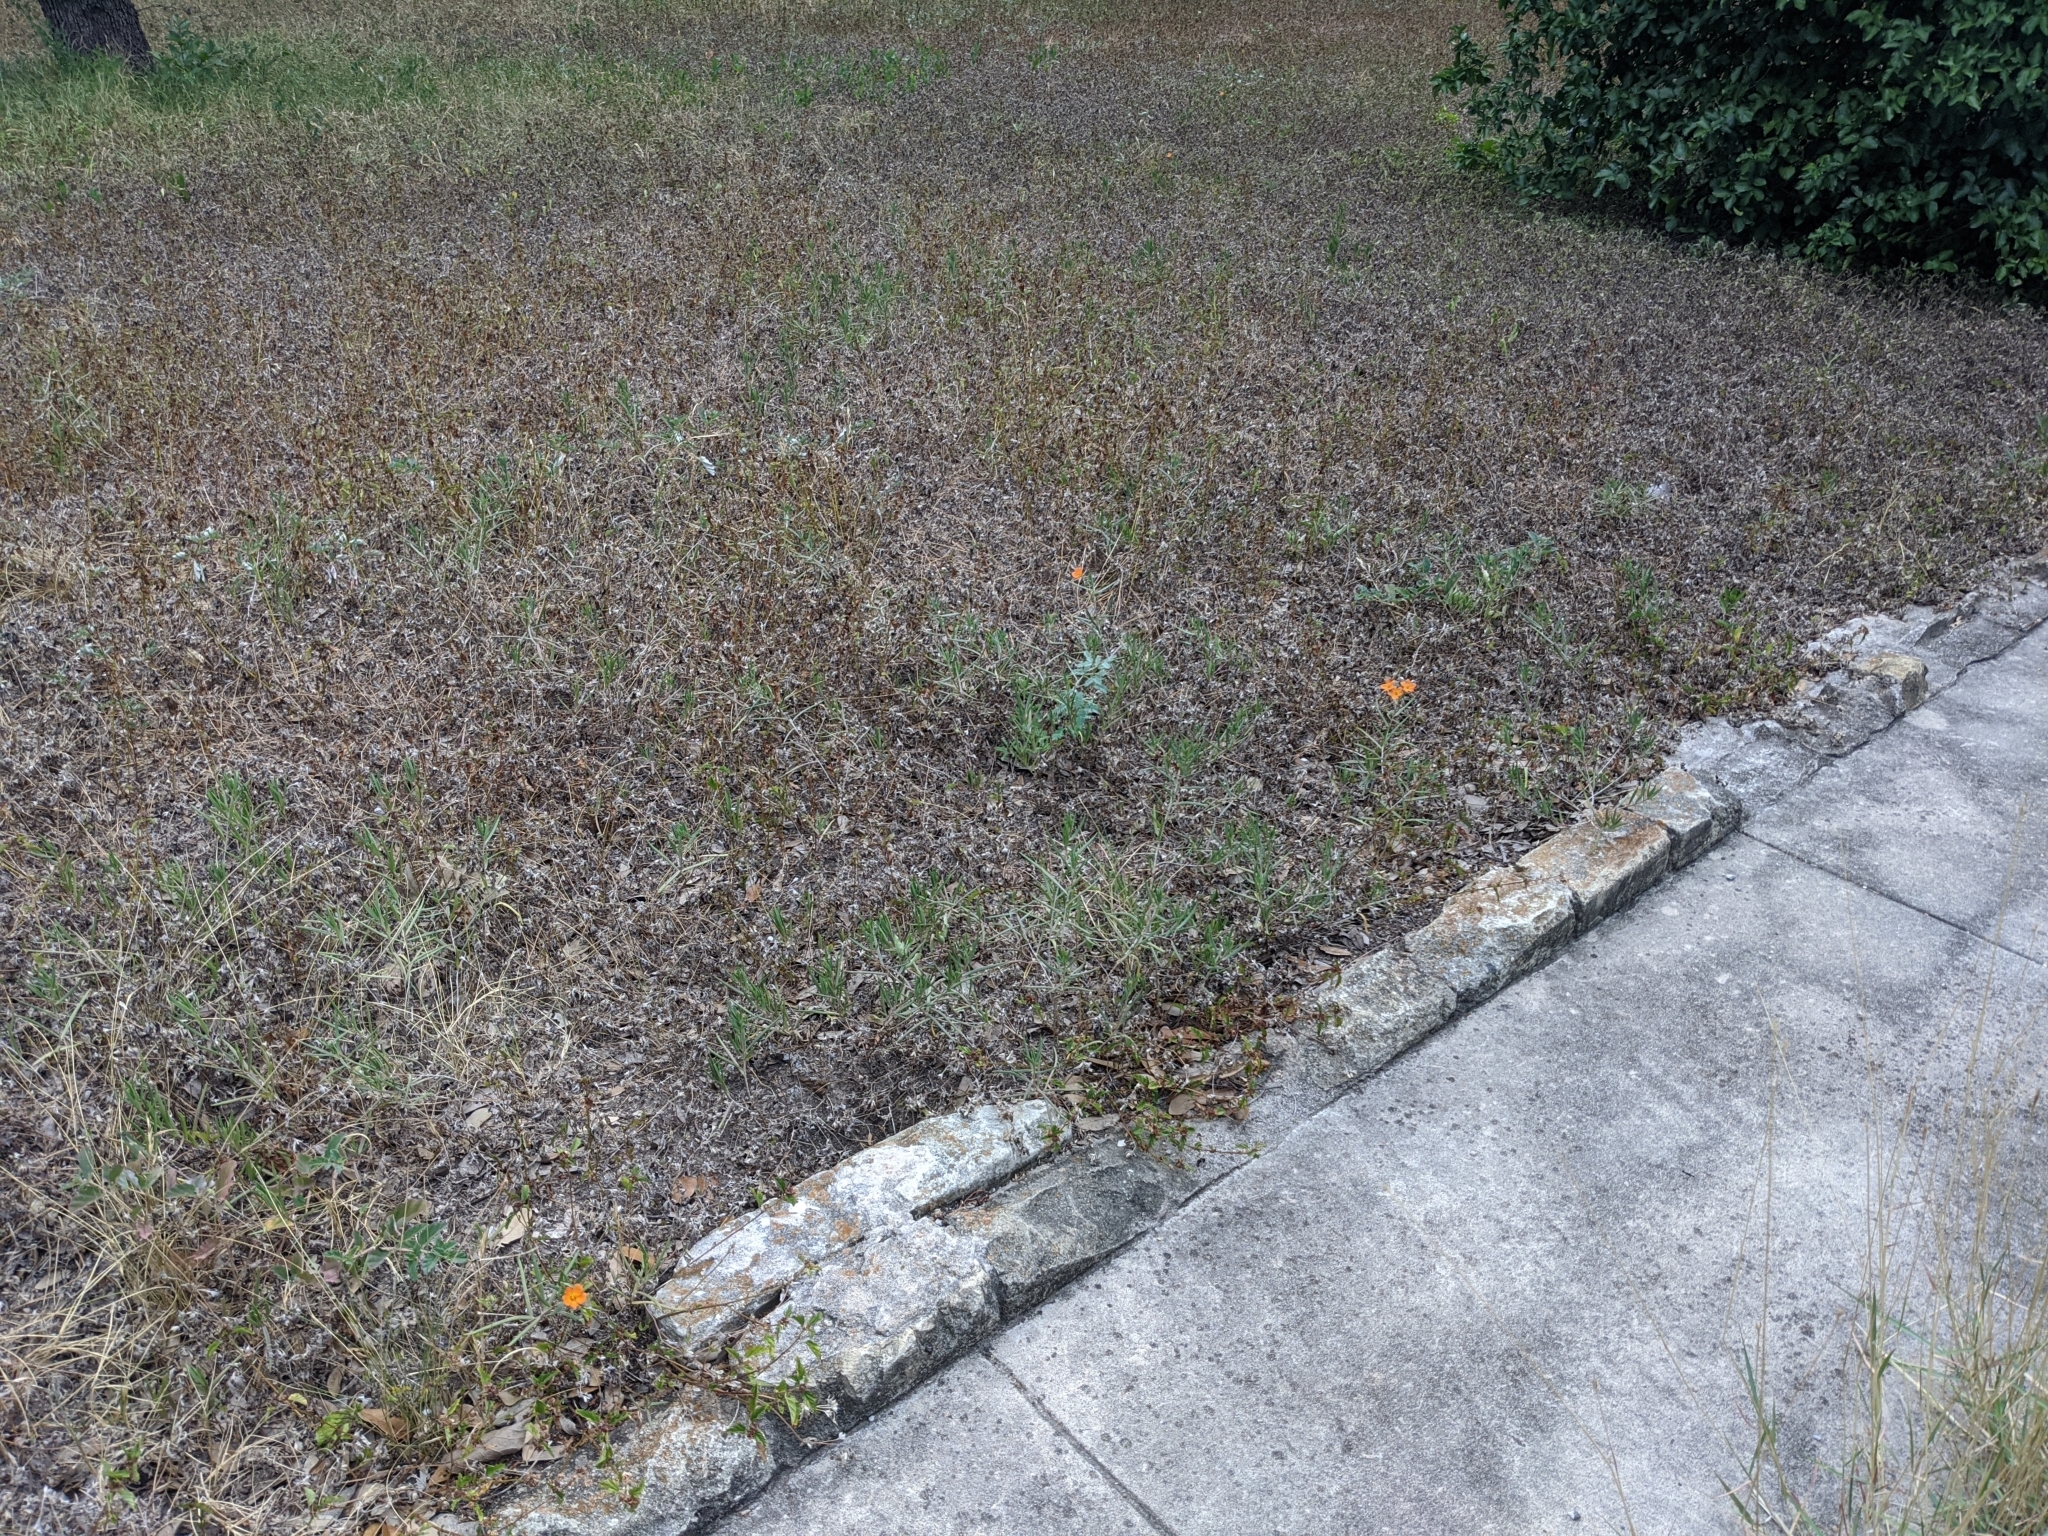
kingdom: Plantae
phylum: Tracheophyta
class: Magnoliopsida
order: Caryophyllales
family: Montiaceae
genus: Phemeranthus
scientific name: Phemeranthus aurantiacus
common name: Orange fameflower
